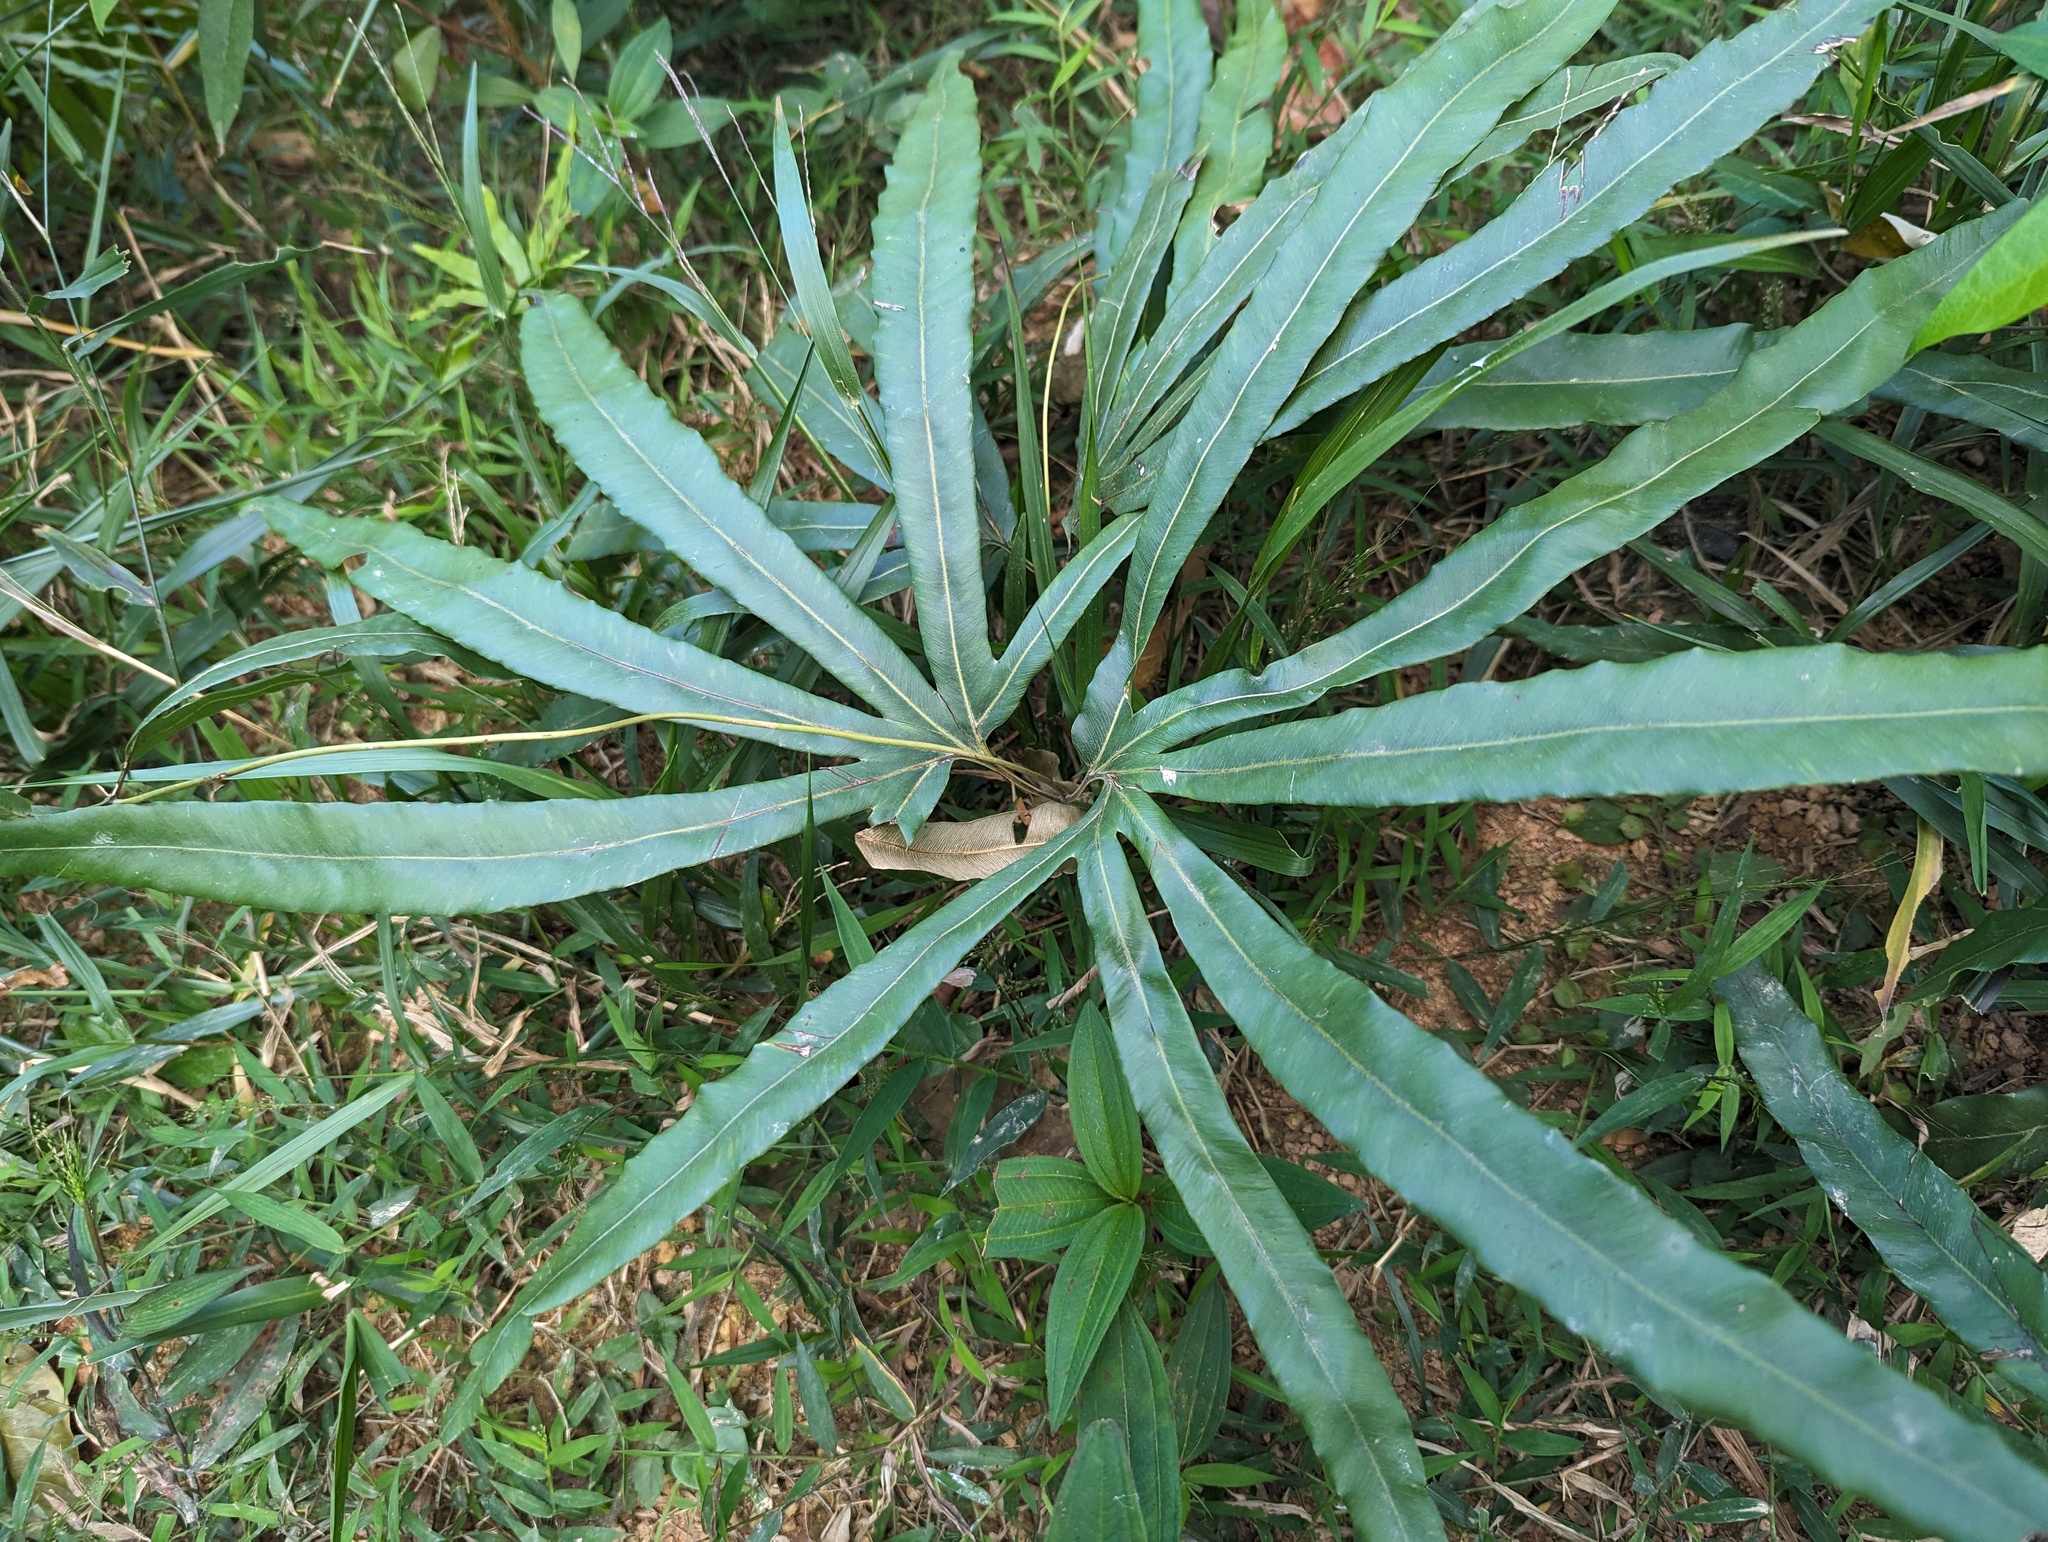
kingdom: Plantae
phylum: Tracheophyta
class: Polypodiopsida
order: Schizaeales
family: Lygodiaceae
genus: Lygodium
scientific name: Lygodium circinnatum
